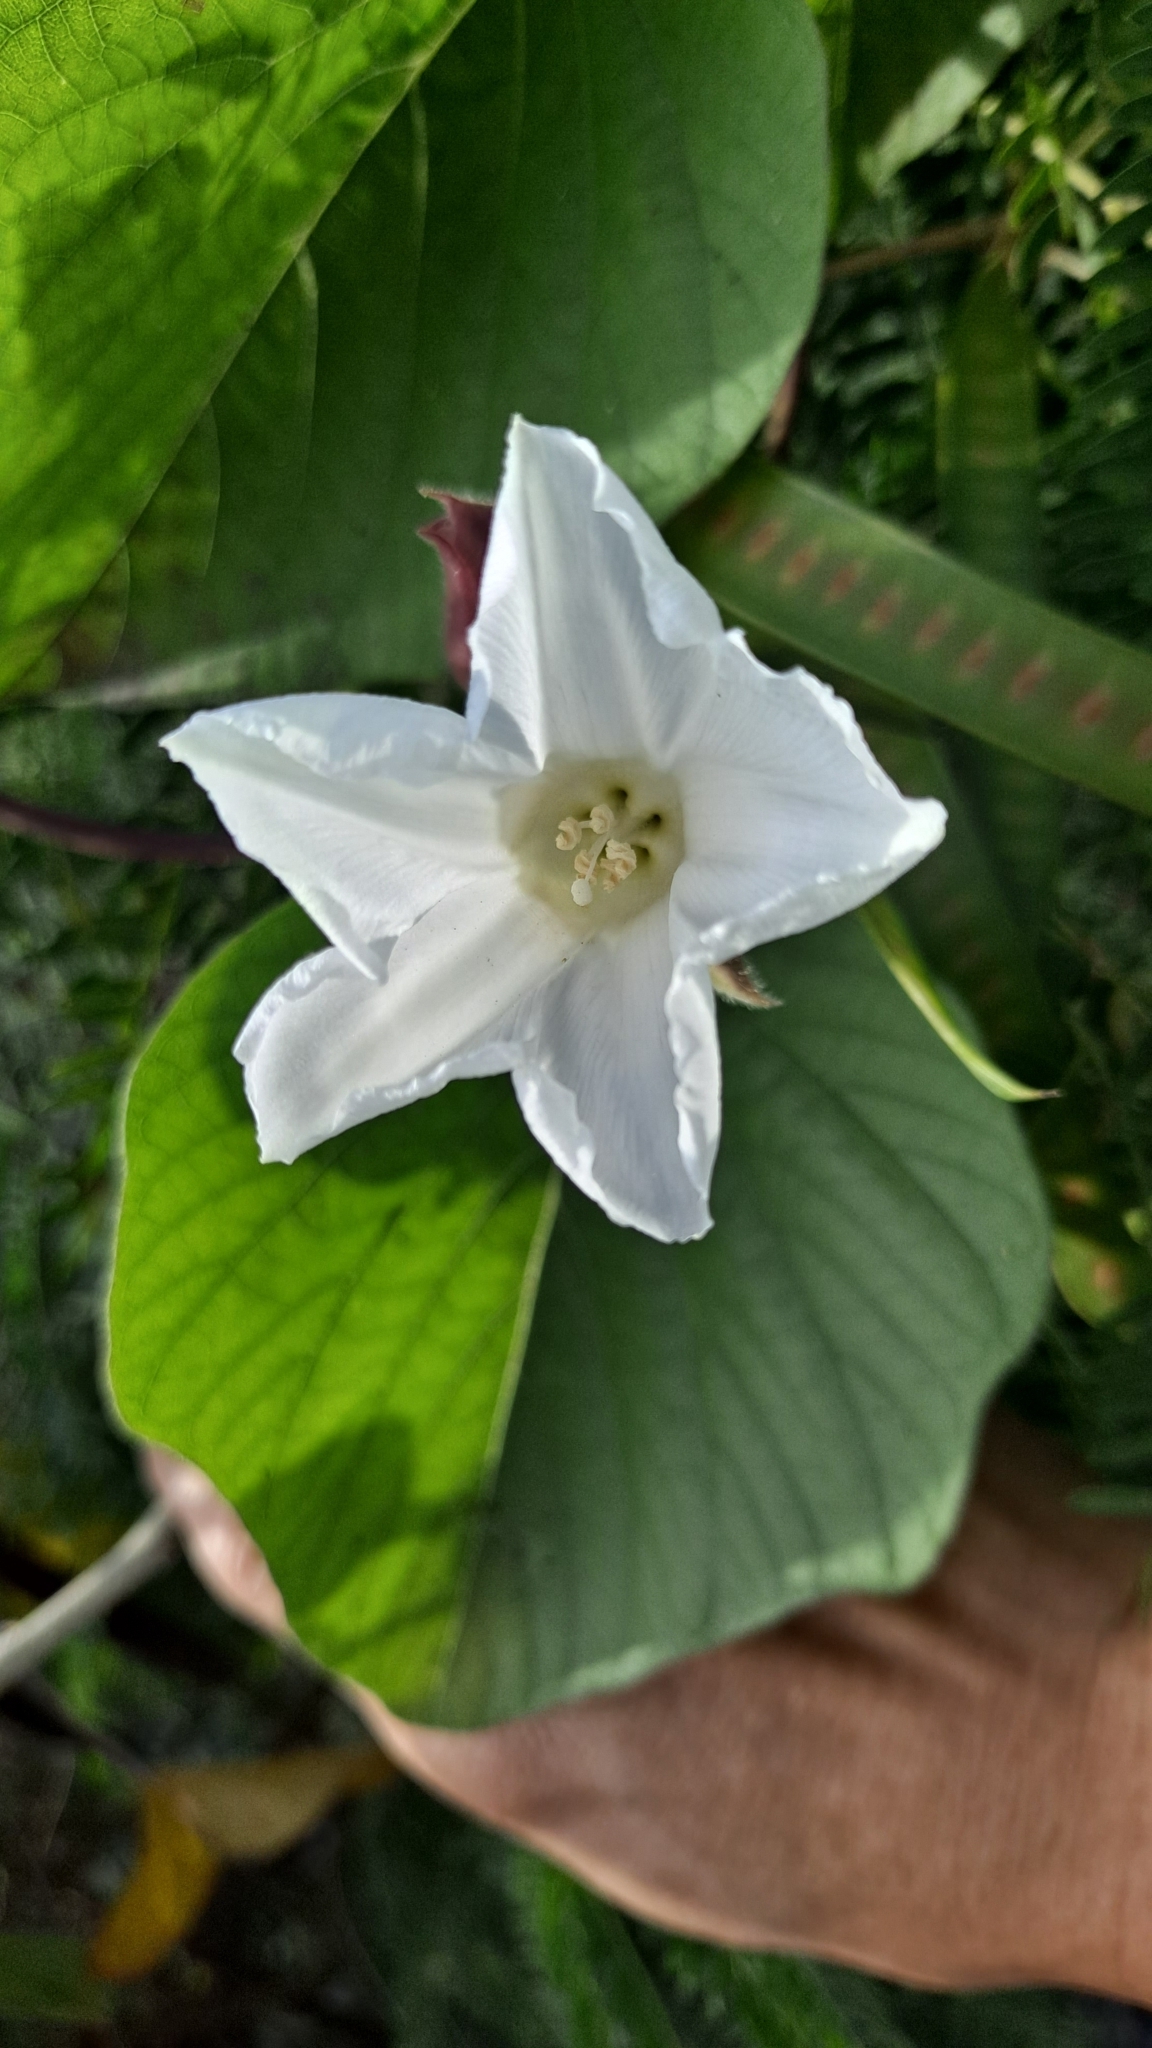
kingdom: Plantae
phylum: Tracheophyta
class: Magnoliopsida
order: Solanales
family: Convolvulaceae
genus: Operculina
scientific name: Operculina turpethum
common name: Transparent wood-rose
